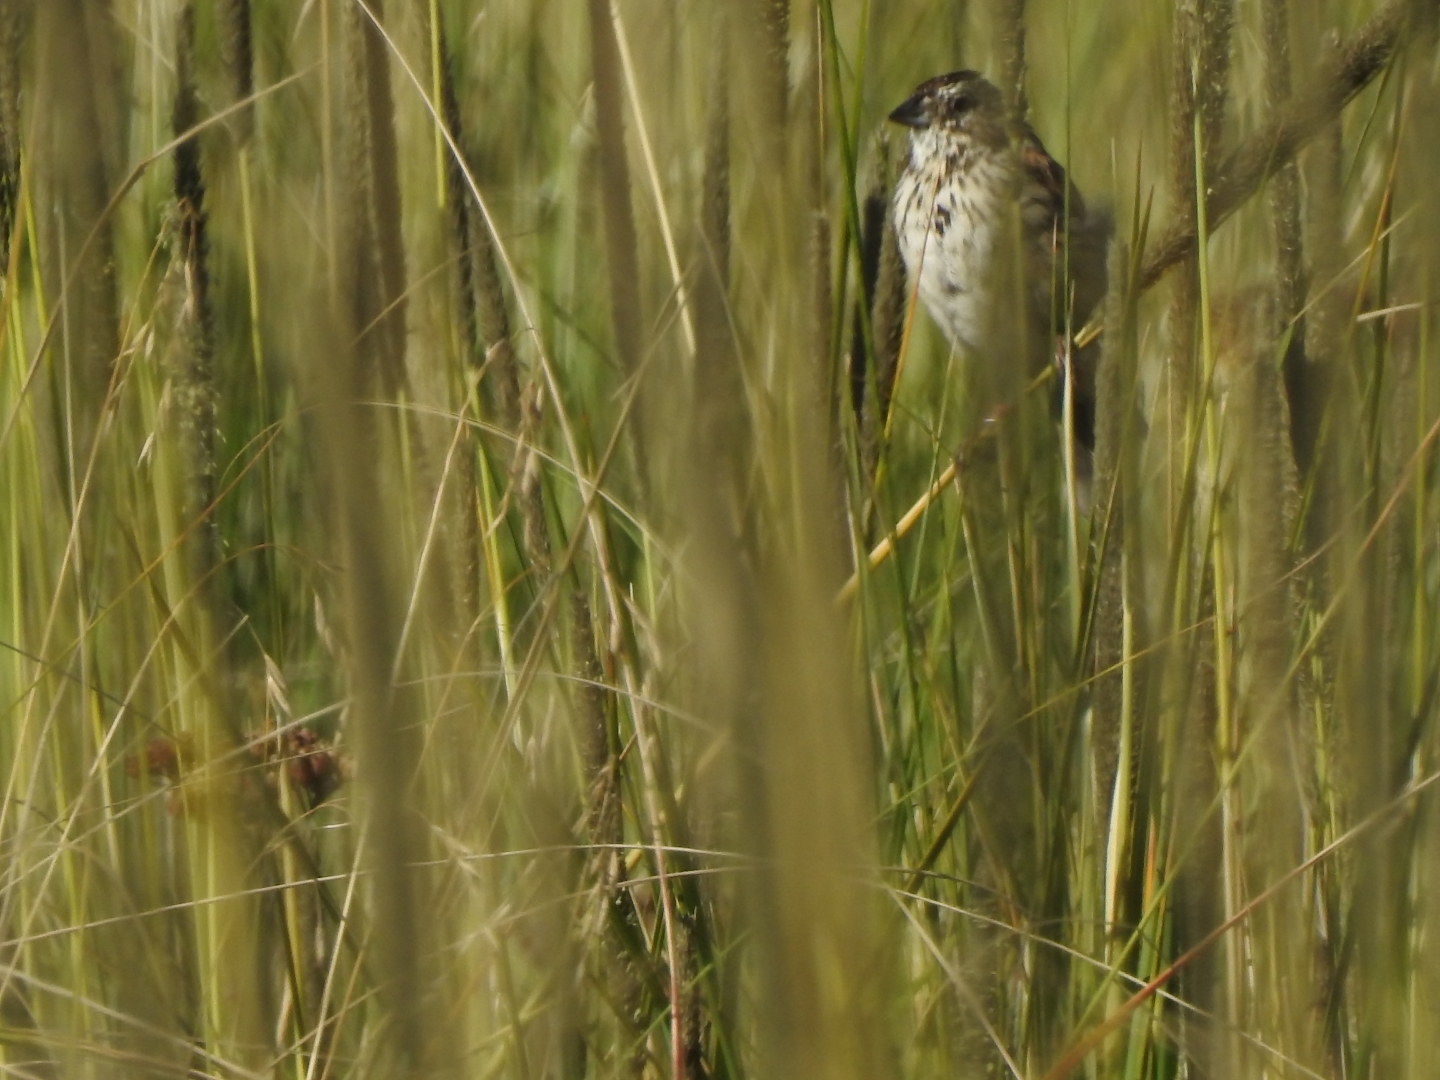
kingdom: Animalia
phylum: Chordata
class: Aves
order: Passeriformes
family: Passerellidae
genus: Xenospiza
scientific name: Xenospiza baileyi
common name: Sierra madre sparrow
